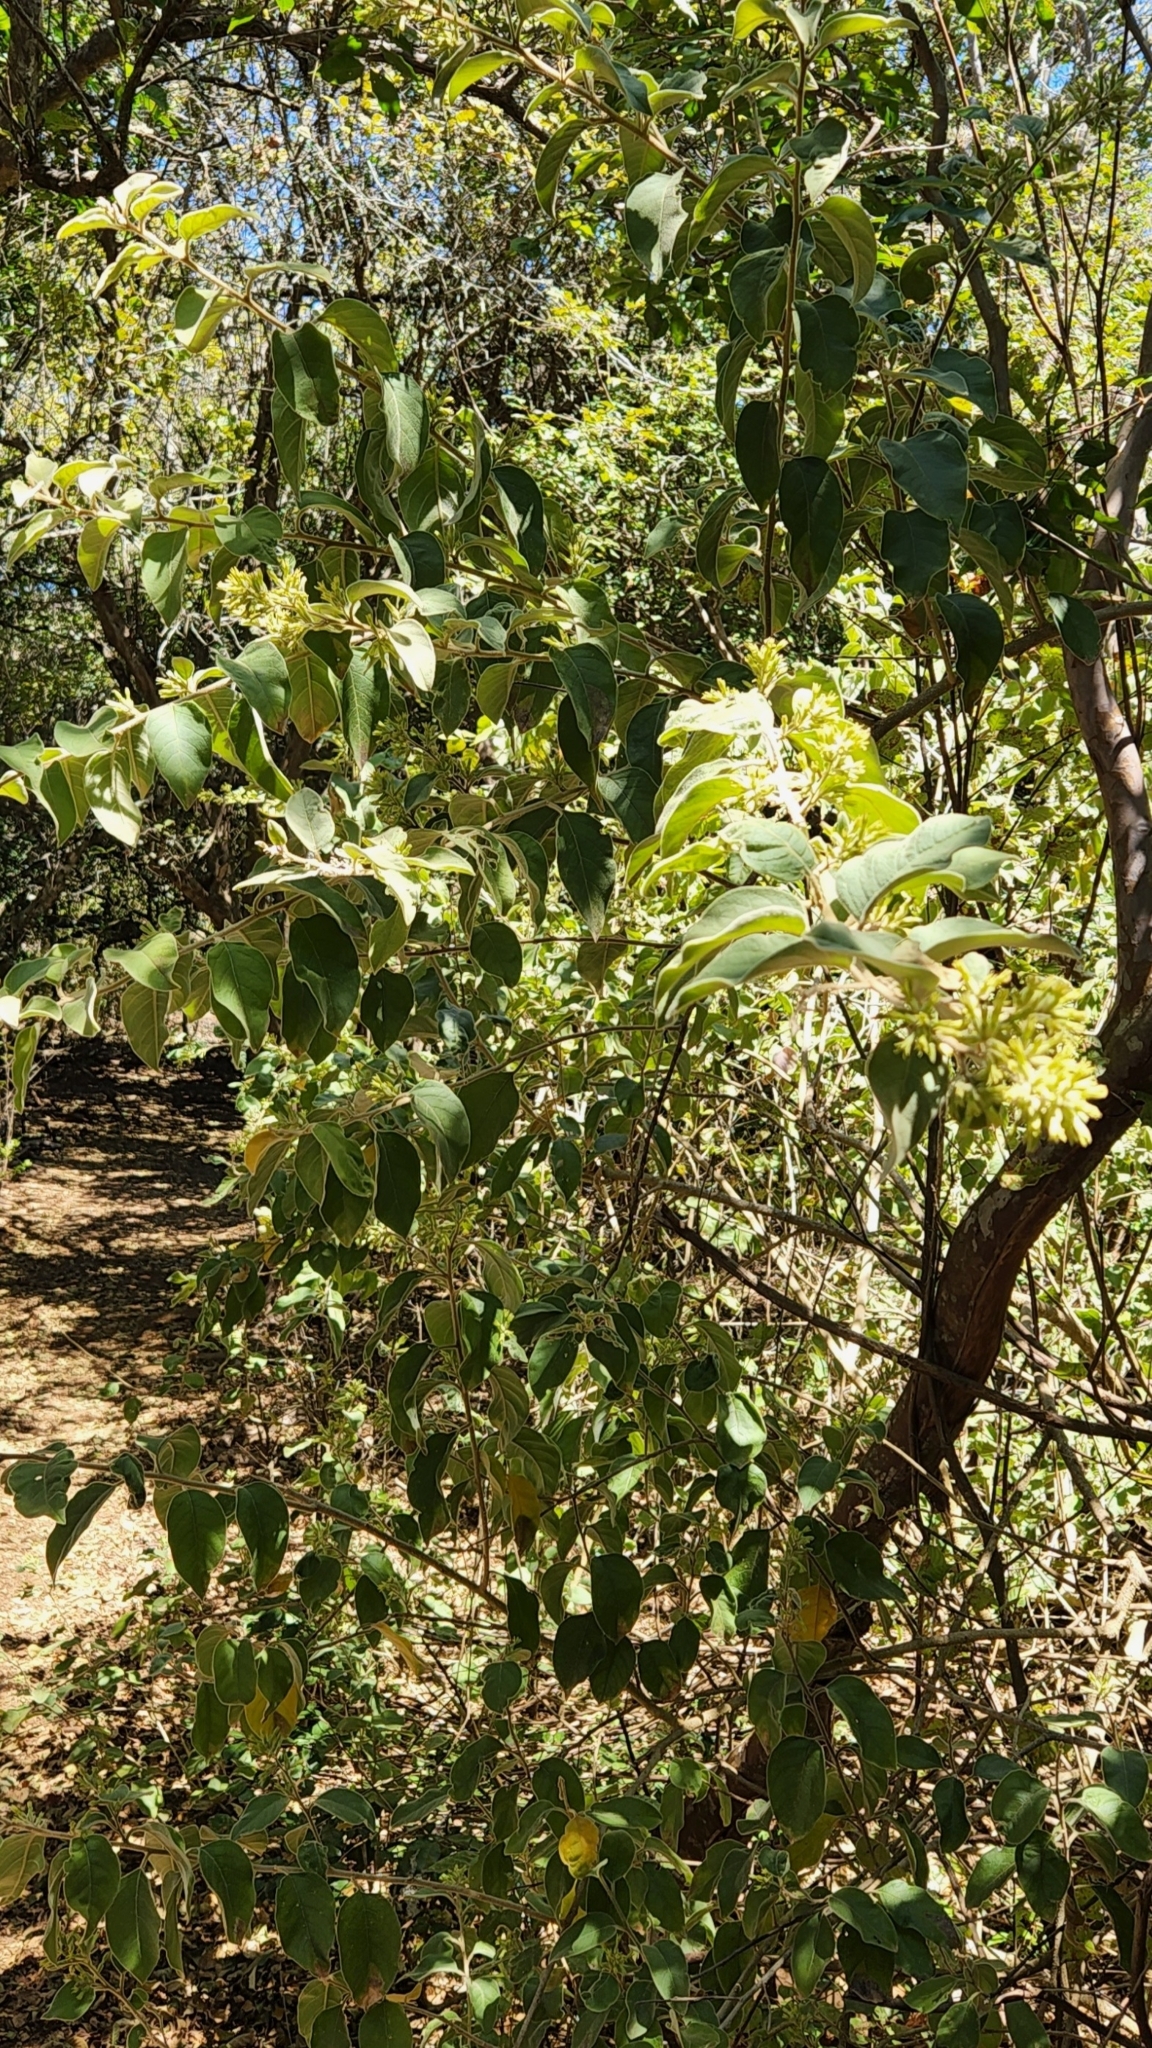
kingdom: Plantae
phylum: Tracheophyta
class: Magnoliopsida
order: Solanales
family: Solanaceae
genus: Cestrum
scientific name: Cestrum pacificum
